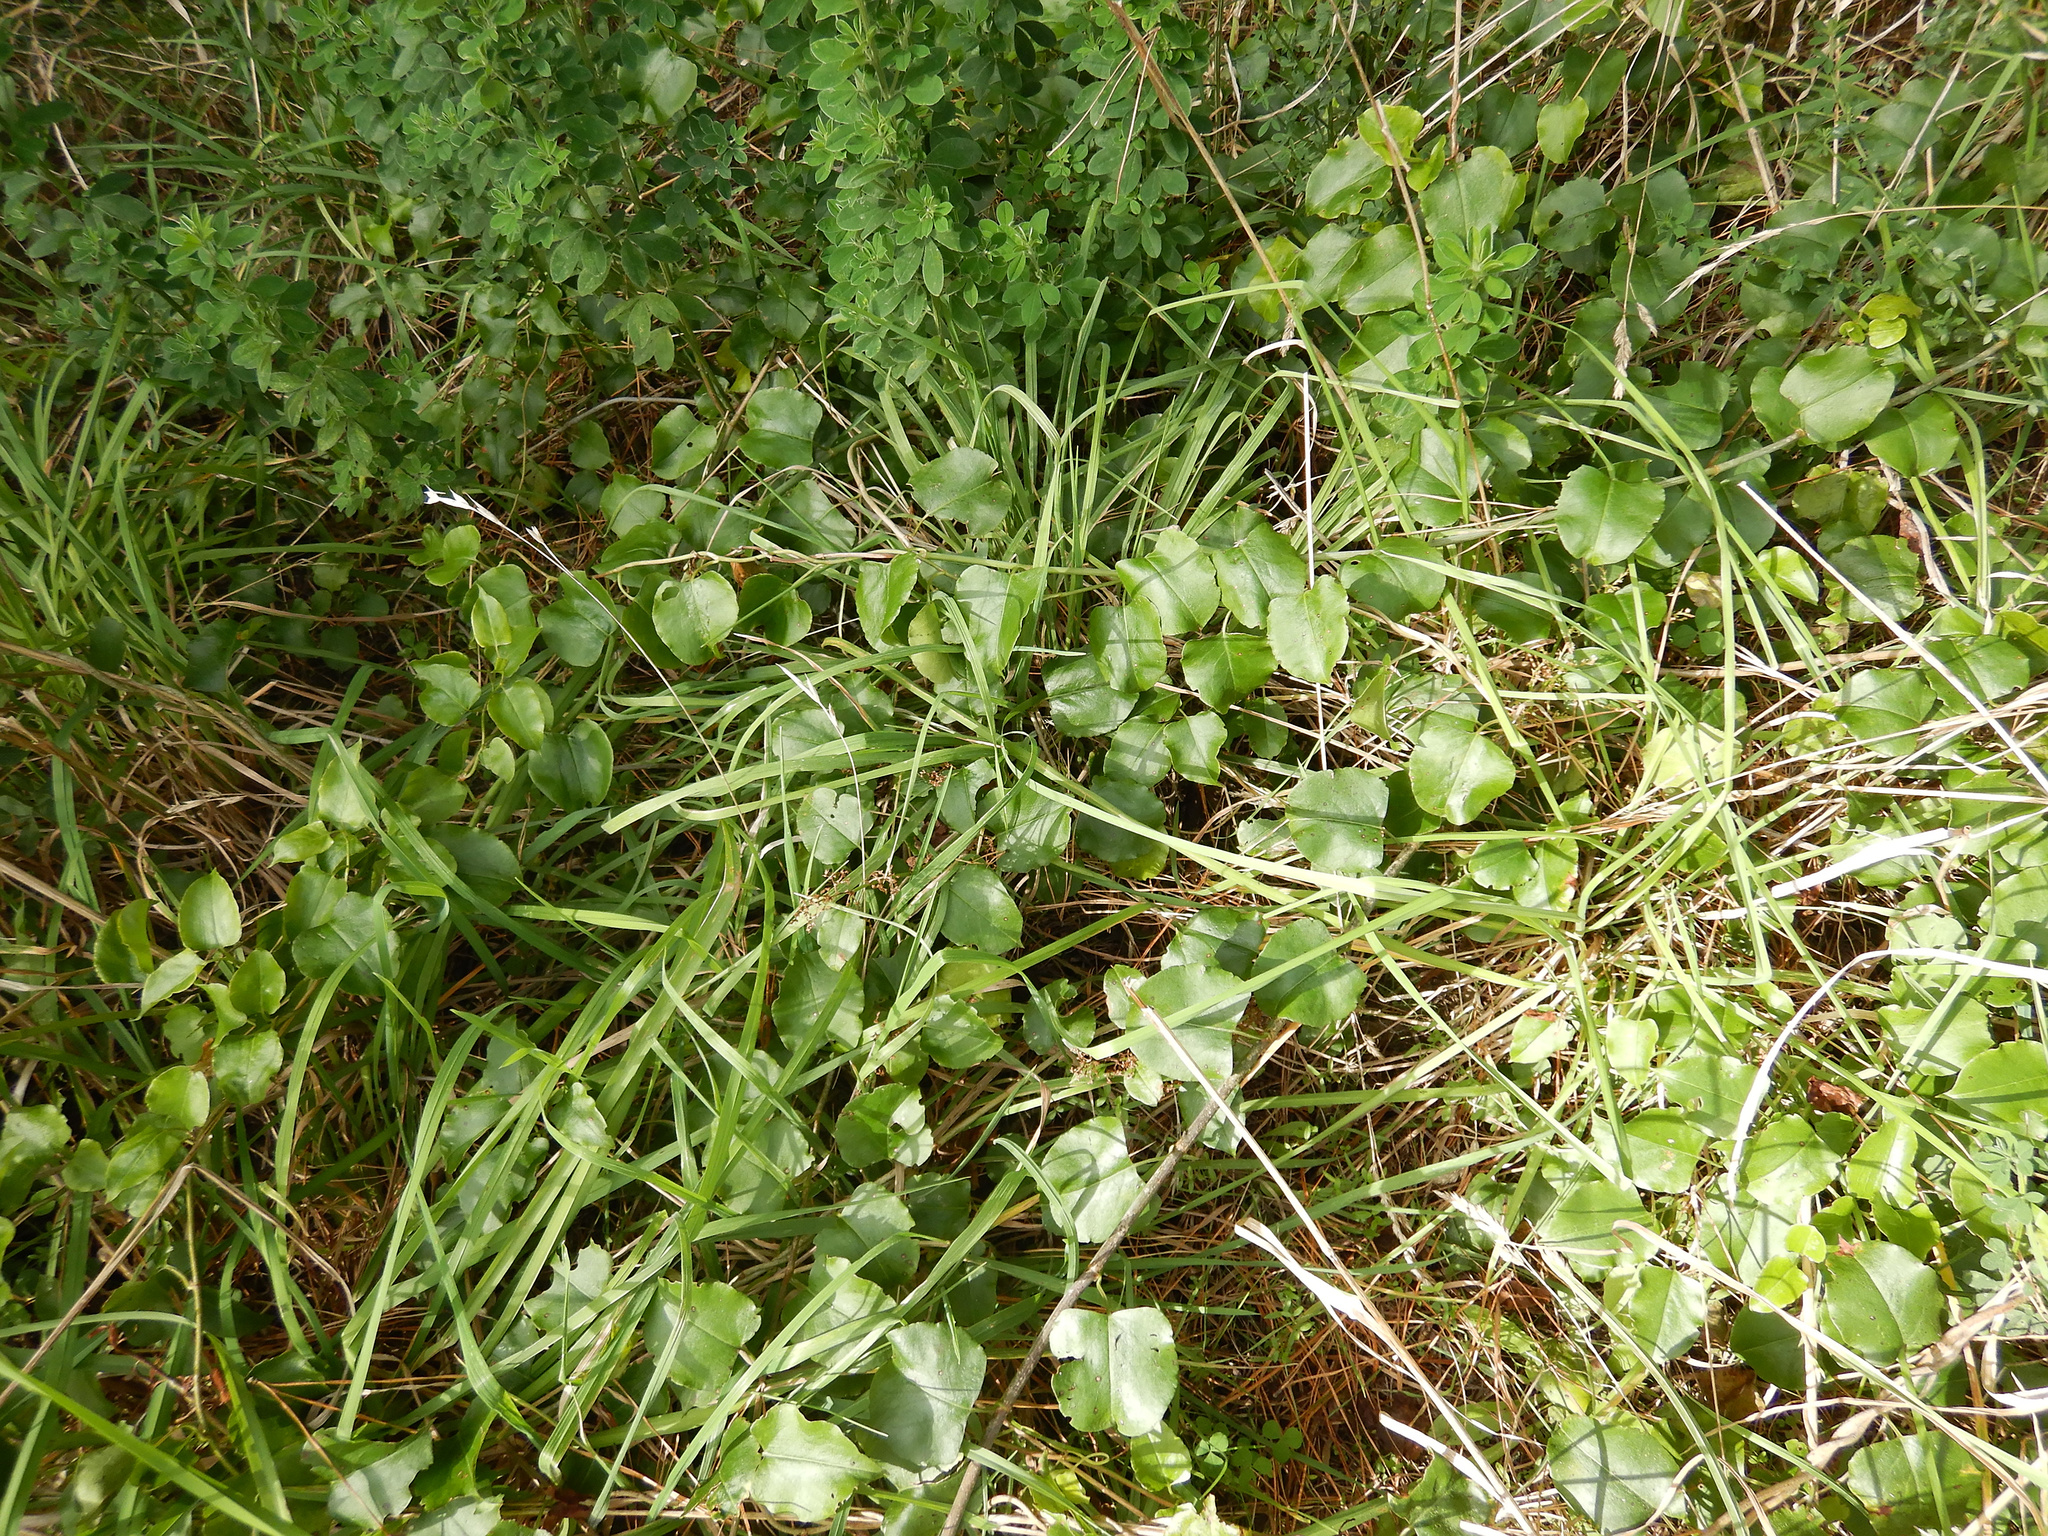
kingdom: Plantae
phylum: Tracheophyta
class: Magnoliopsida
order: Caryophyllales
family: Polygonaceae
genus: Muehlenbeckia
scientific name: Muehlenbeckia australis
